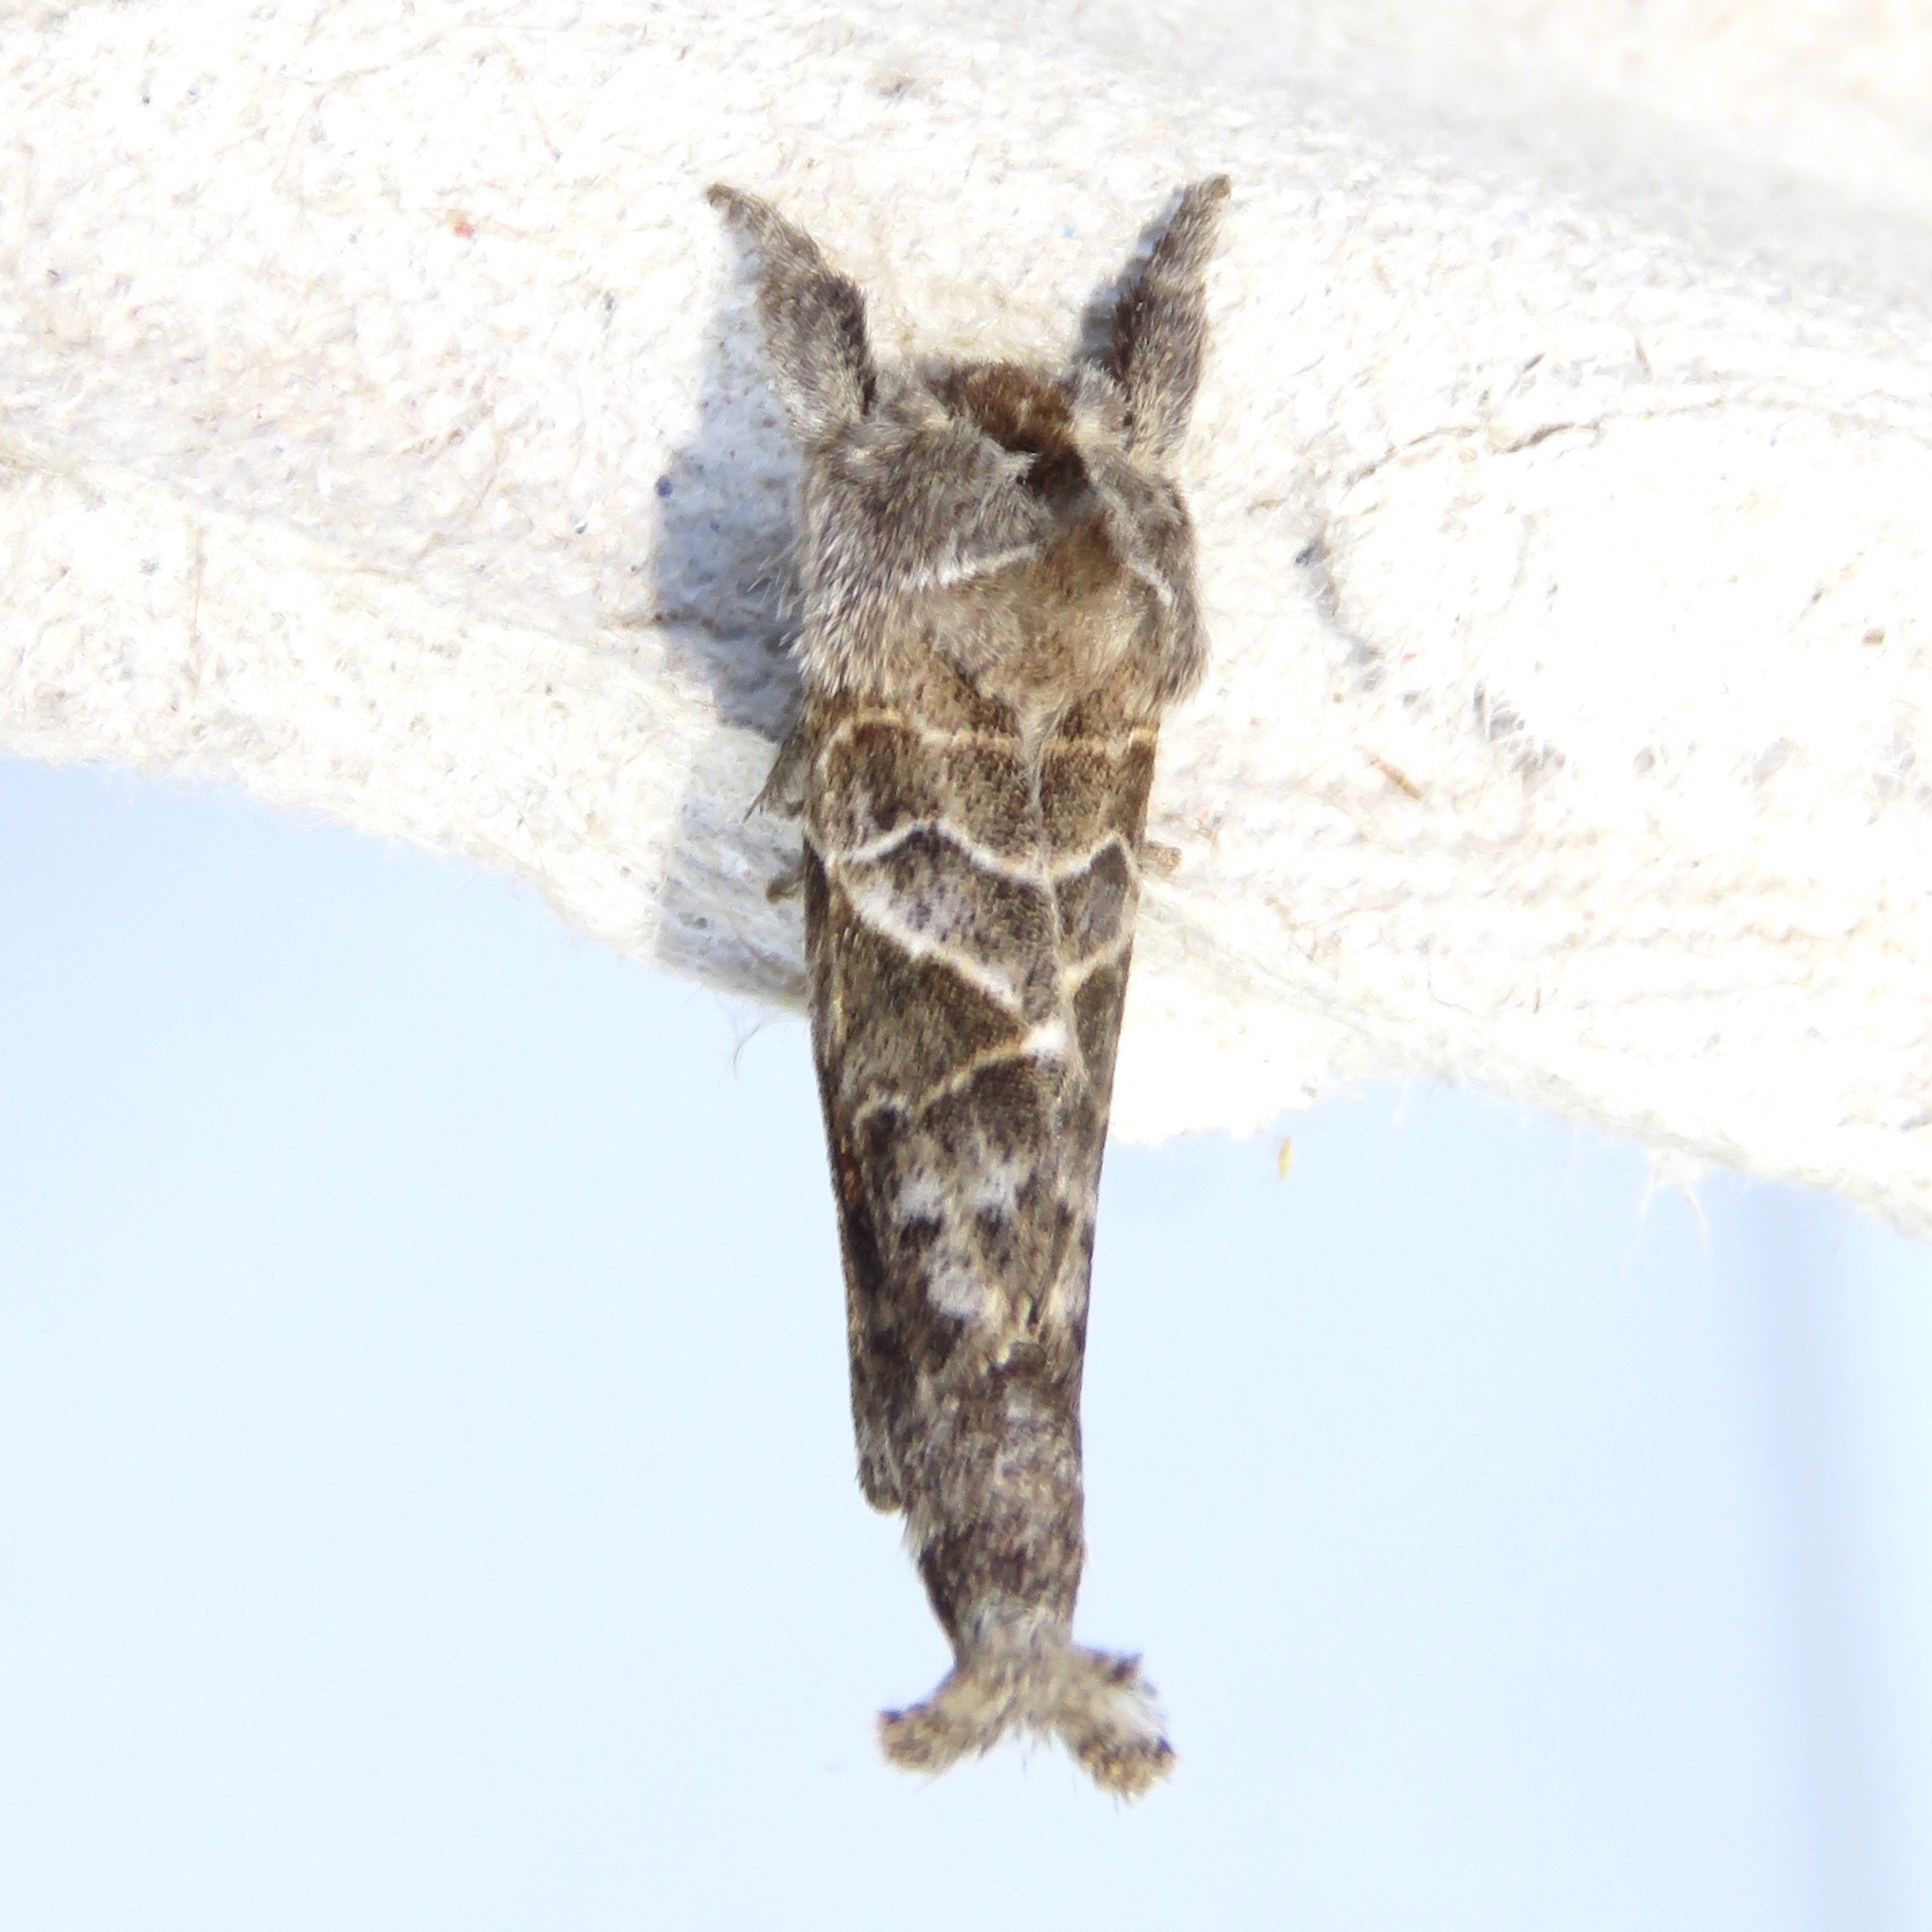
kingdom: Animalia
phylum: Arthropoda
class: Insecta
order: Lepidoptera
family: Notodontidae
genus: Clostera
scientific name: Clostera strigosa
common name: Striped chocolate-tip moth
